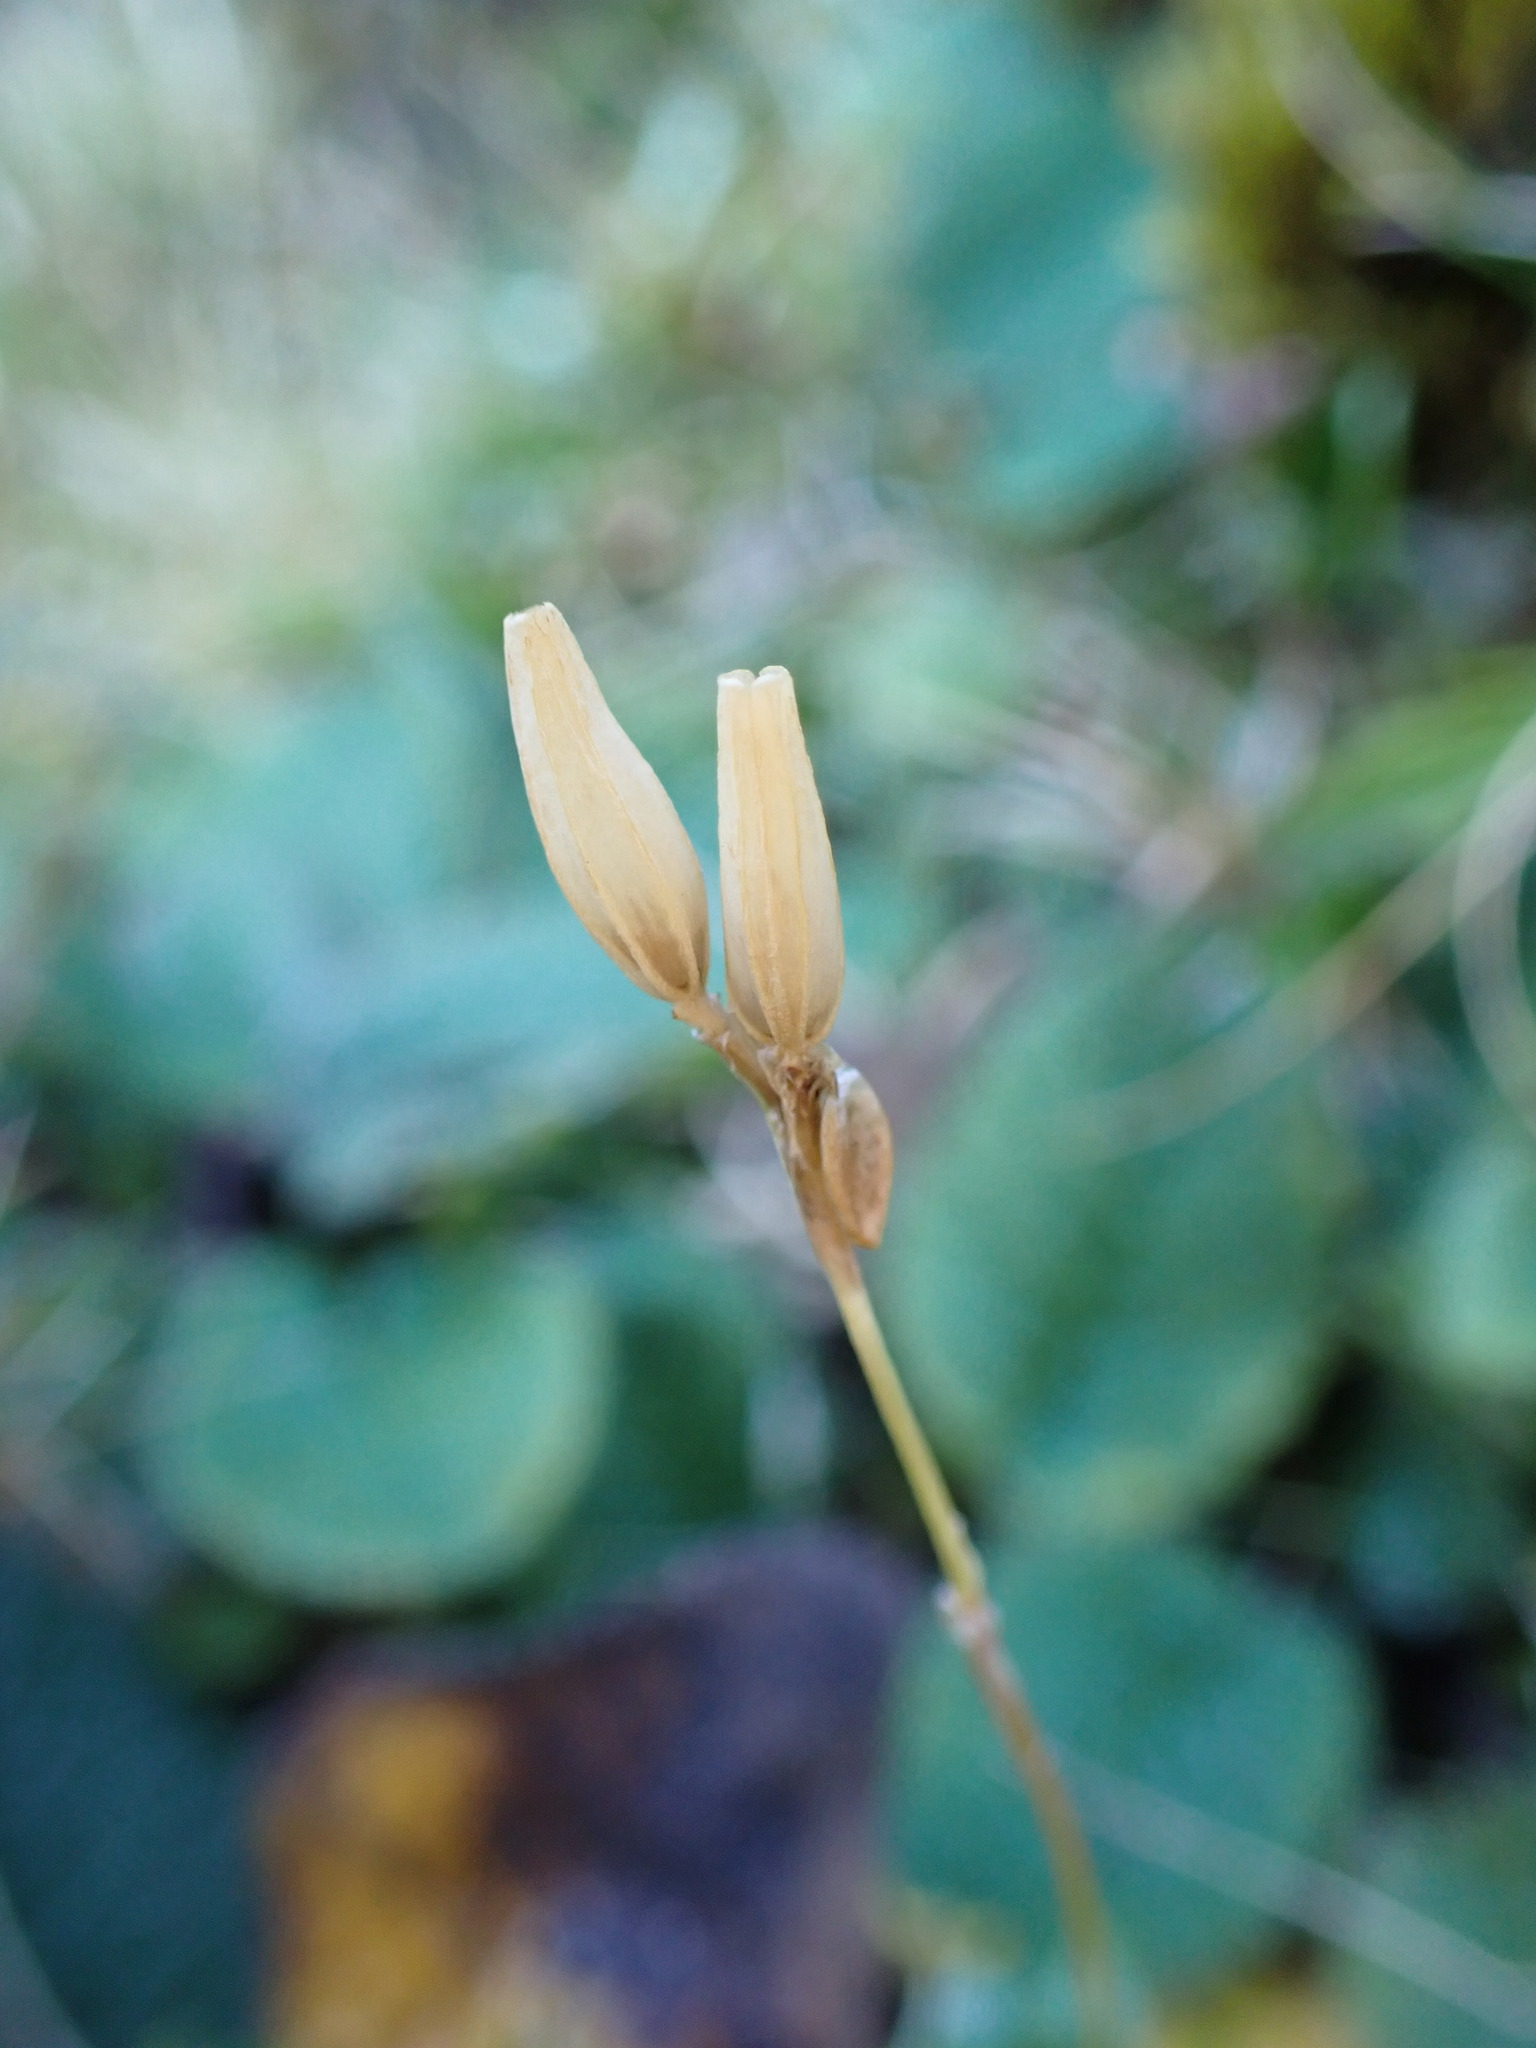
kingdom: Plantae
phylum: Tracheophyta
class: Magnoliopsida
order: Asterales
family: Stylidiaceae
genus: Forstera
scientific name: Forstera tenella
